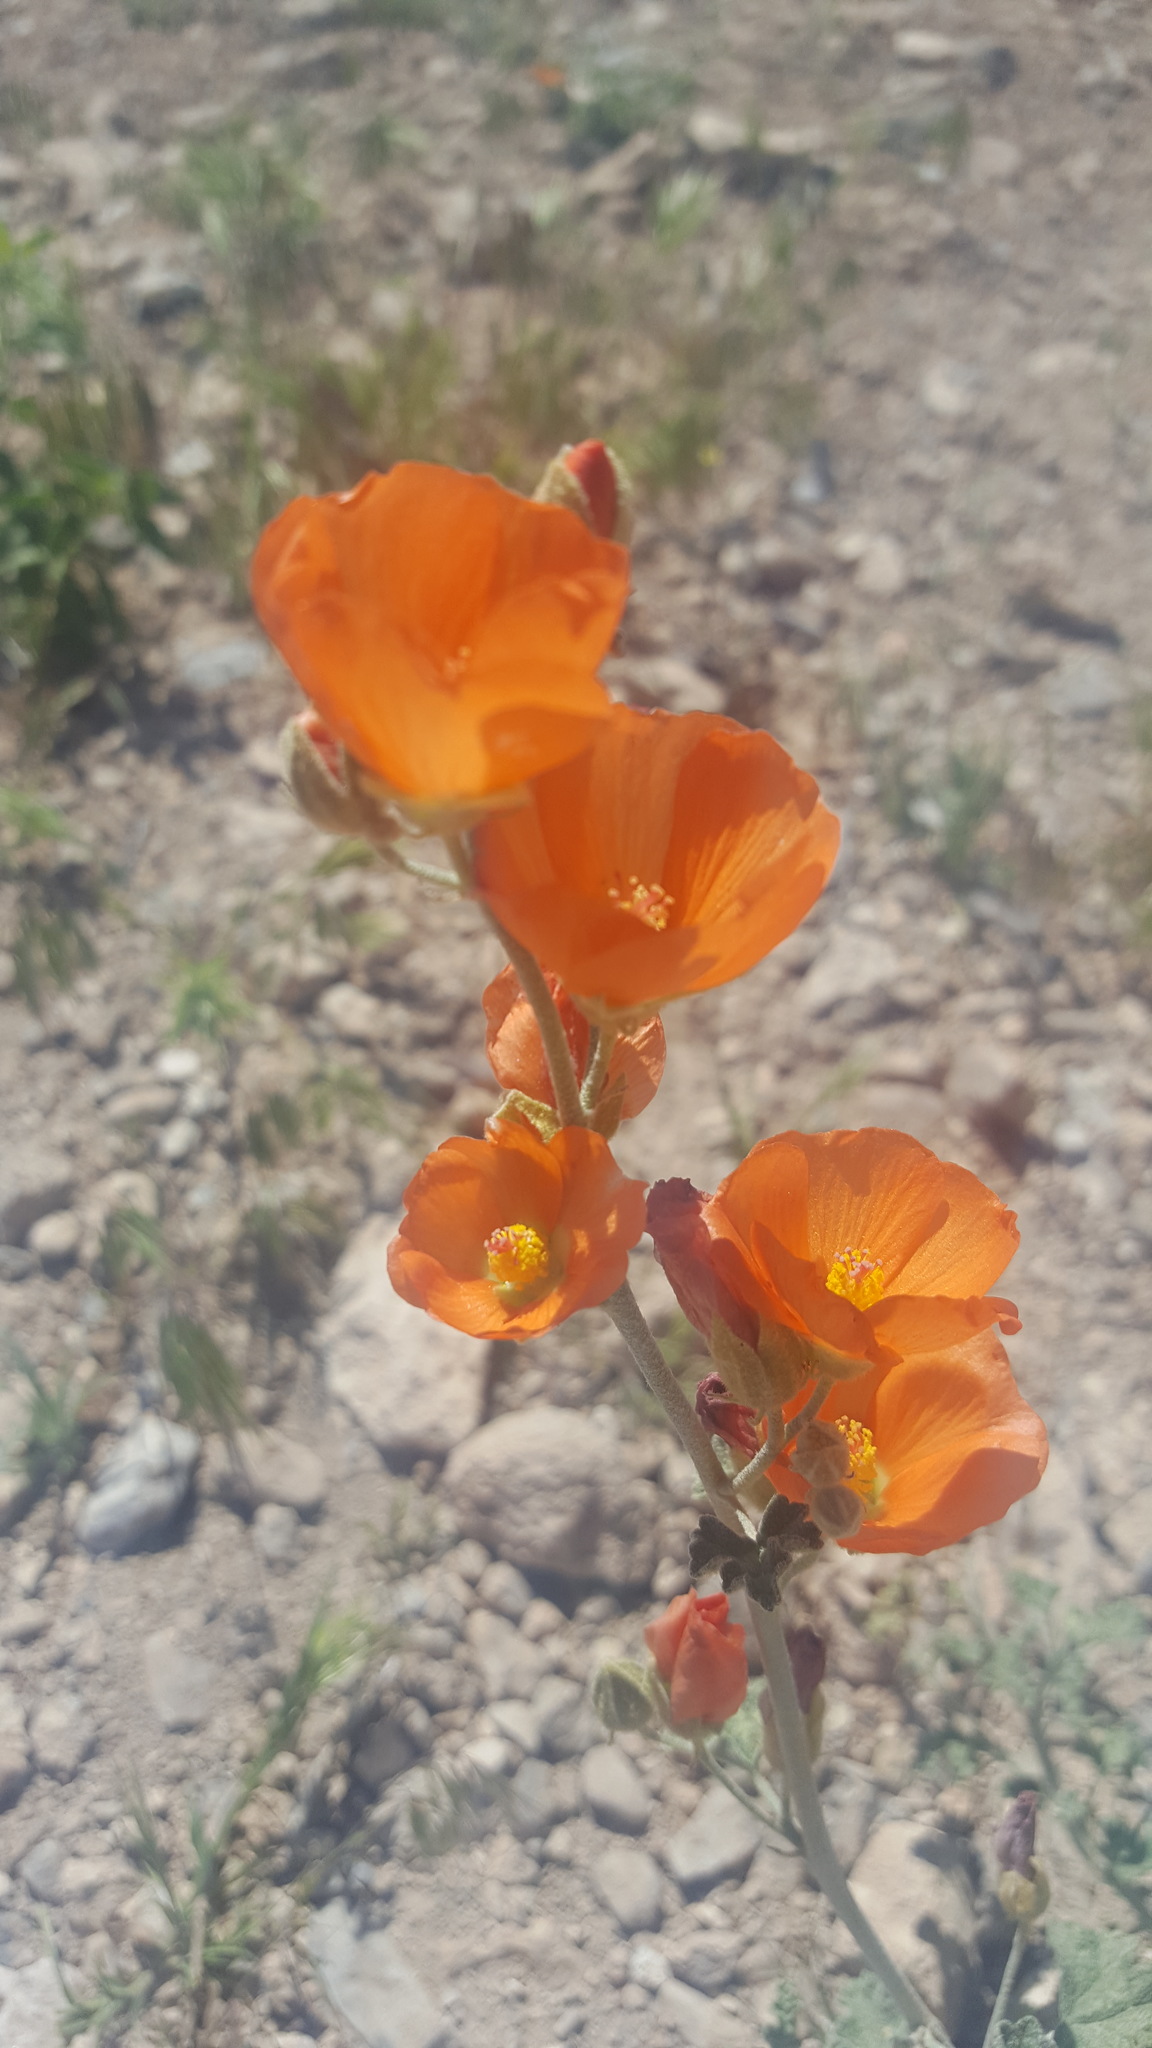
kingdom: Plantae
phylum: Tracheophyta
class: Magnoliopsida
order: Malvales
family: Malvaceae
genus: Sphaeralcea
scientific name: Sphaeralcea ambigua
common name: Apricot globe-mallow
